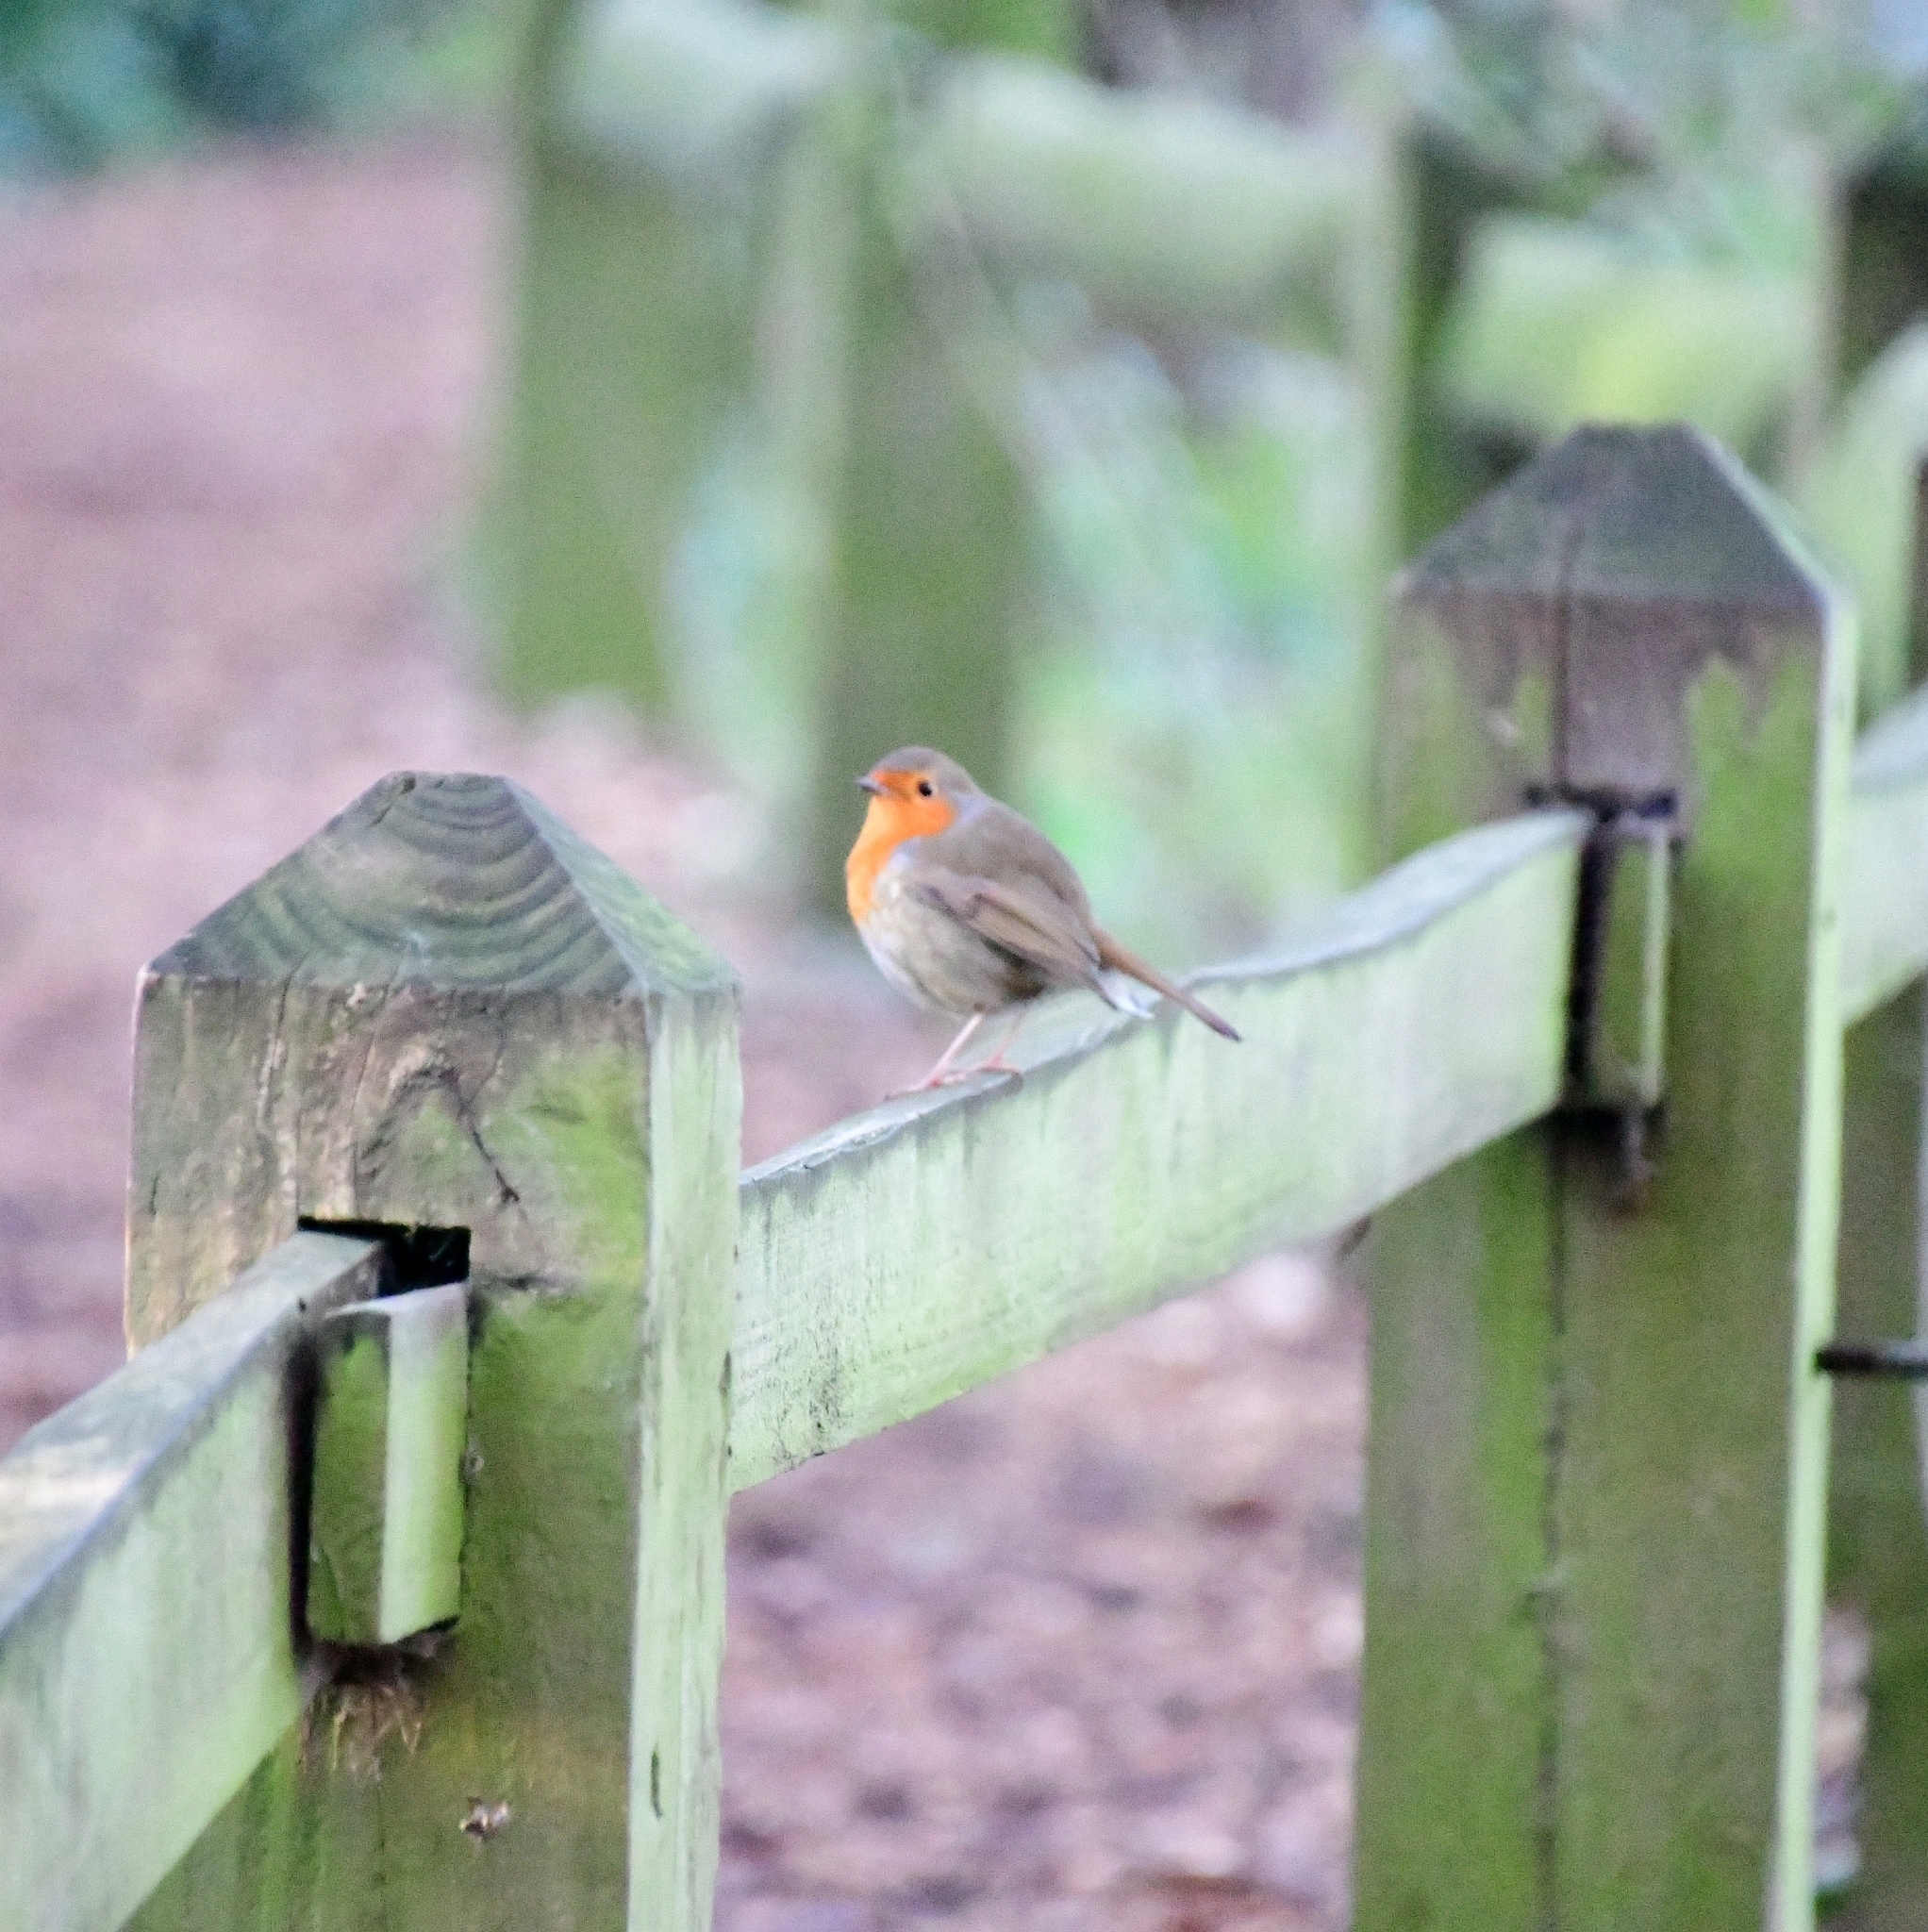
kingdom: Animalia
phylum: Chordata
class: Aves
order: Passeriformes
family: Muscicapidae
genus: Erithacus
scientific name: Erithacus rubecula
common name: European robin
